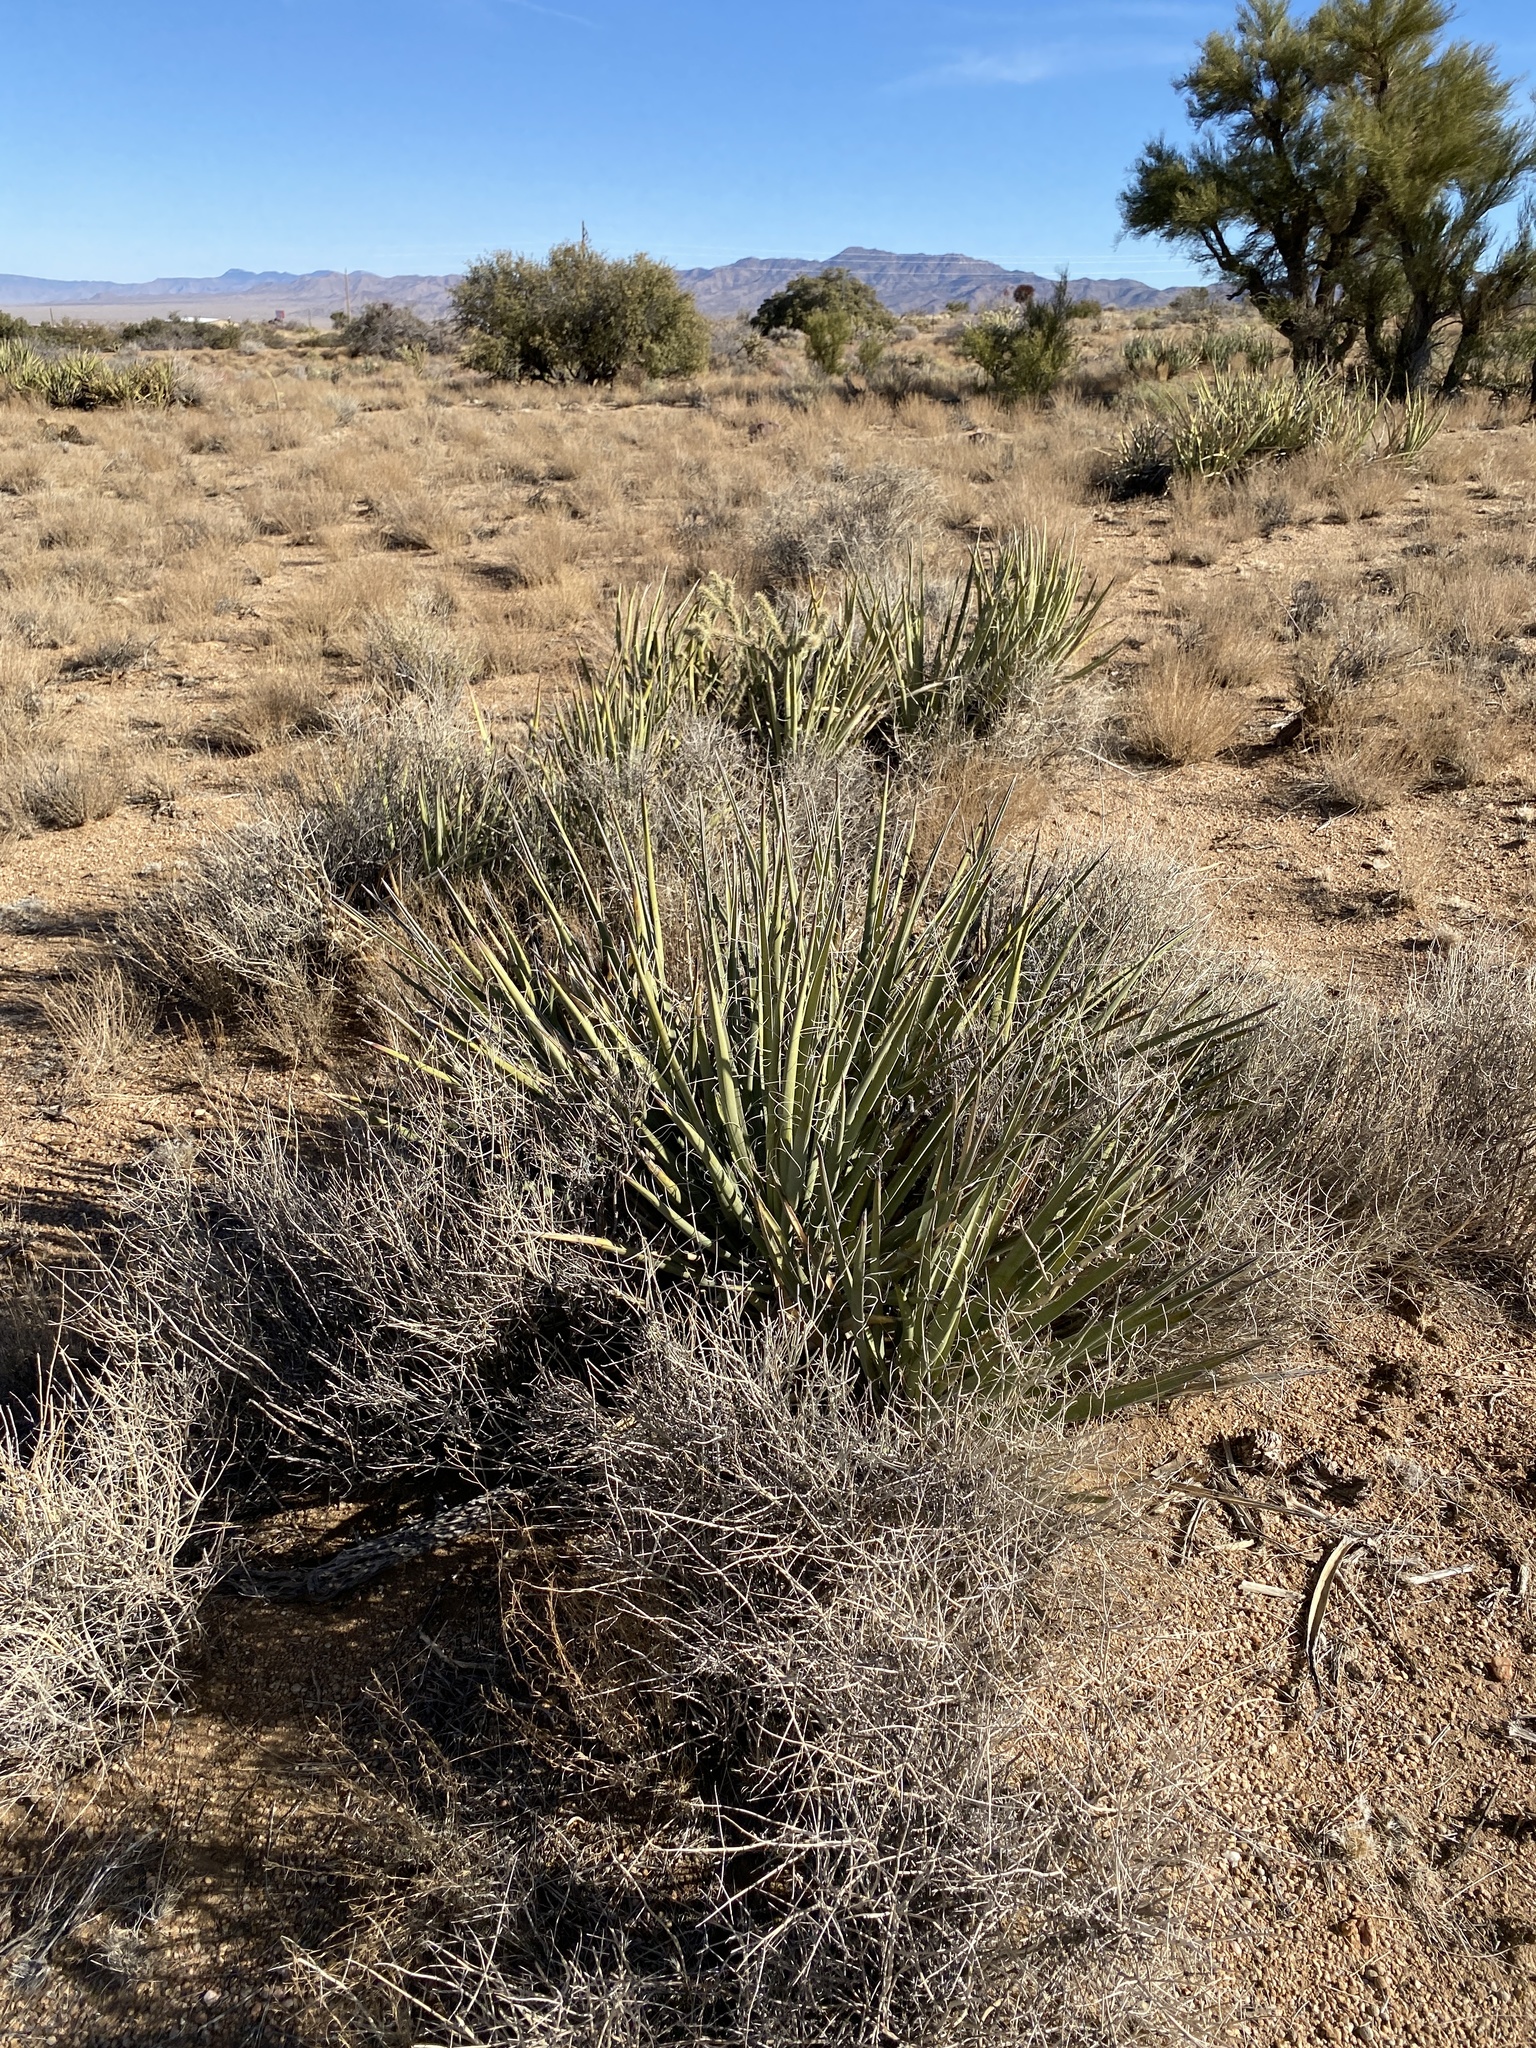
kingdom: Plantae
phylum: Tracheophyta
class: Liliopsida
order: Asparagales
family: Asparagaceae
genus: Yucca
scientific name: Yucca baccata
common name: Banana yucca
